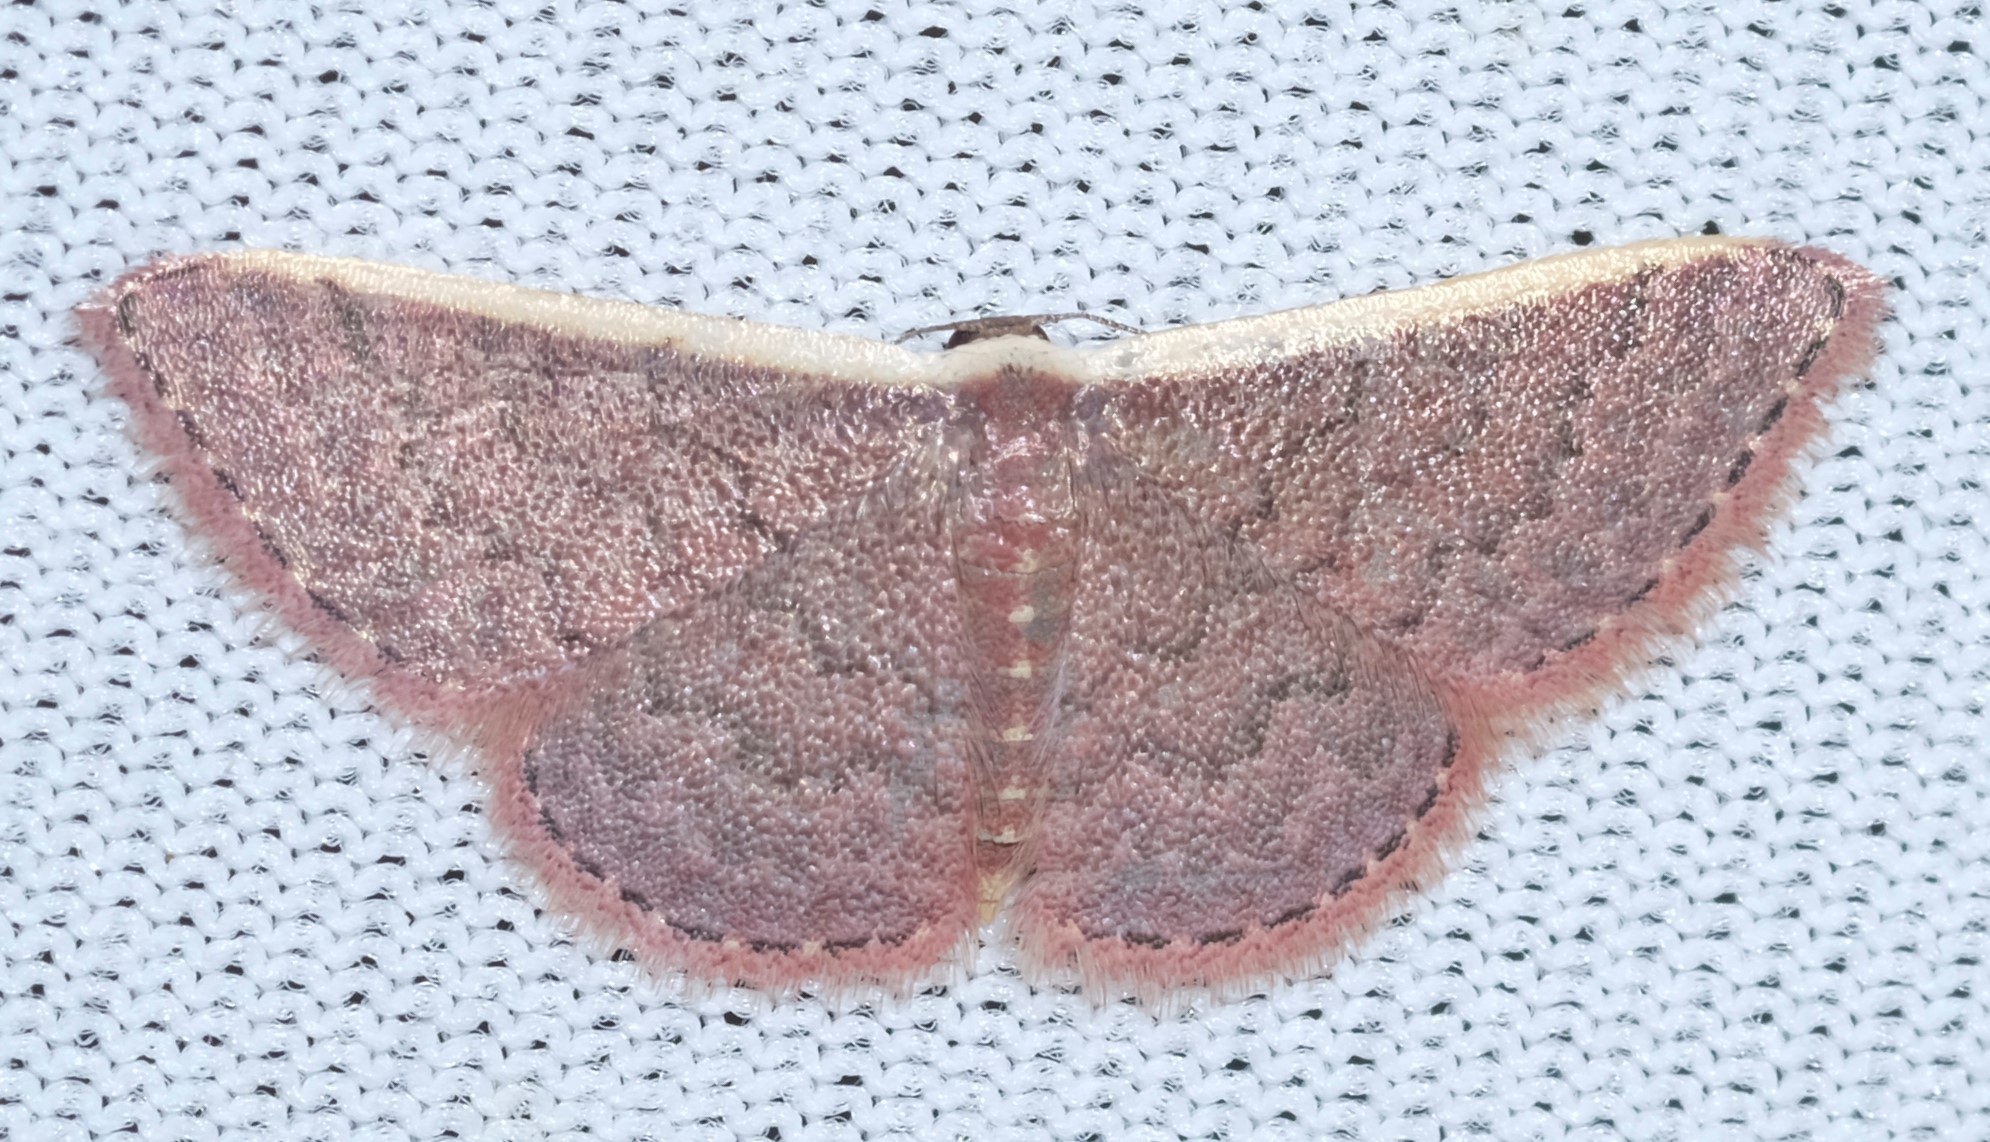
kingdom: Animalia
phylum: Arthropoda
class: Insecta
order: Lepidoptera
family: Geometridae
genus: Idaea
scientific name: Idaea inversata
